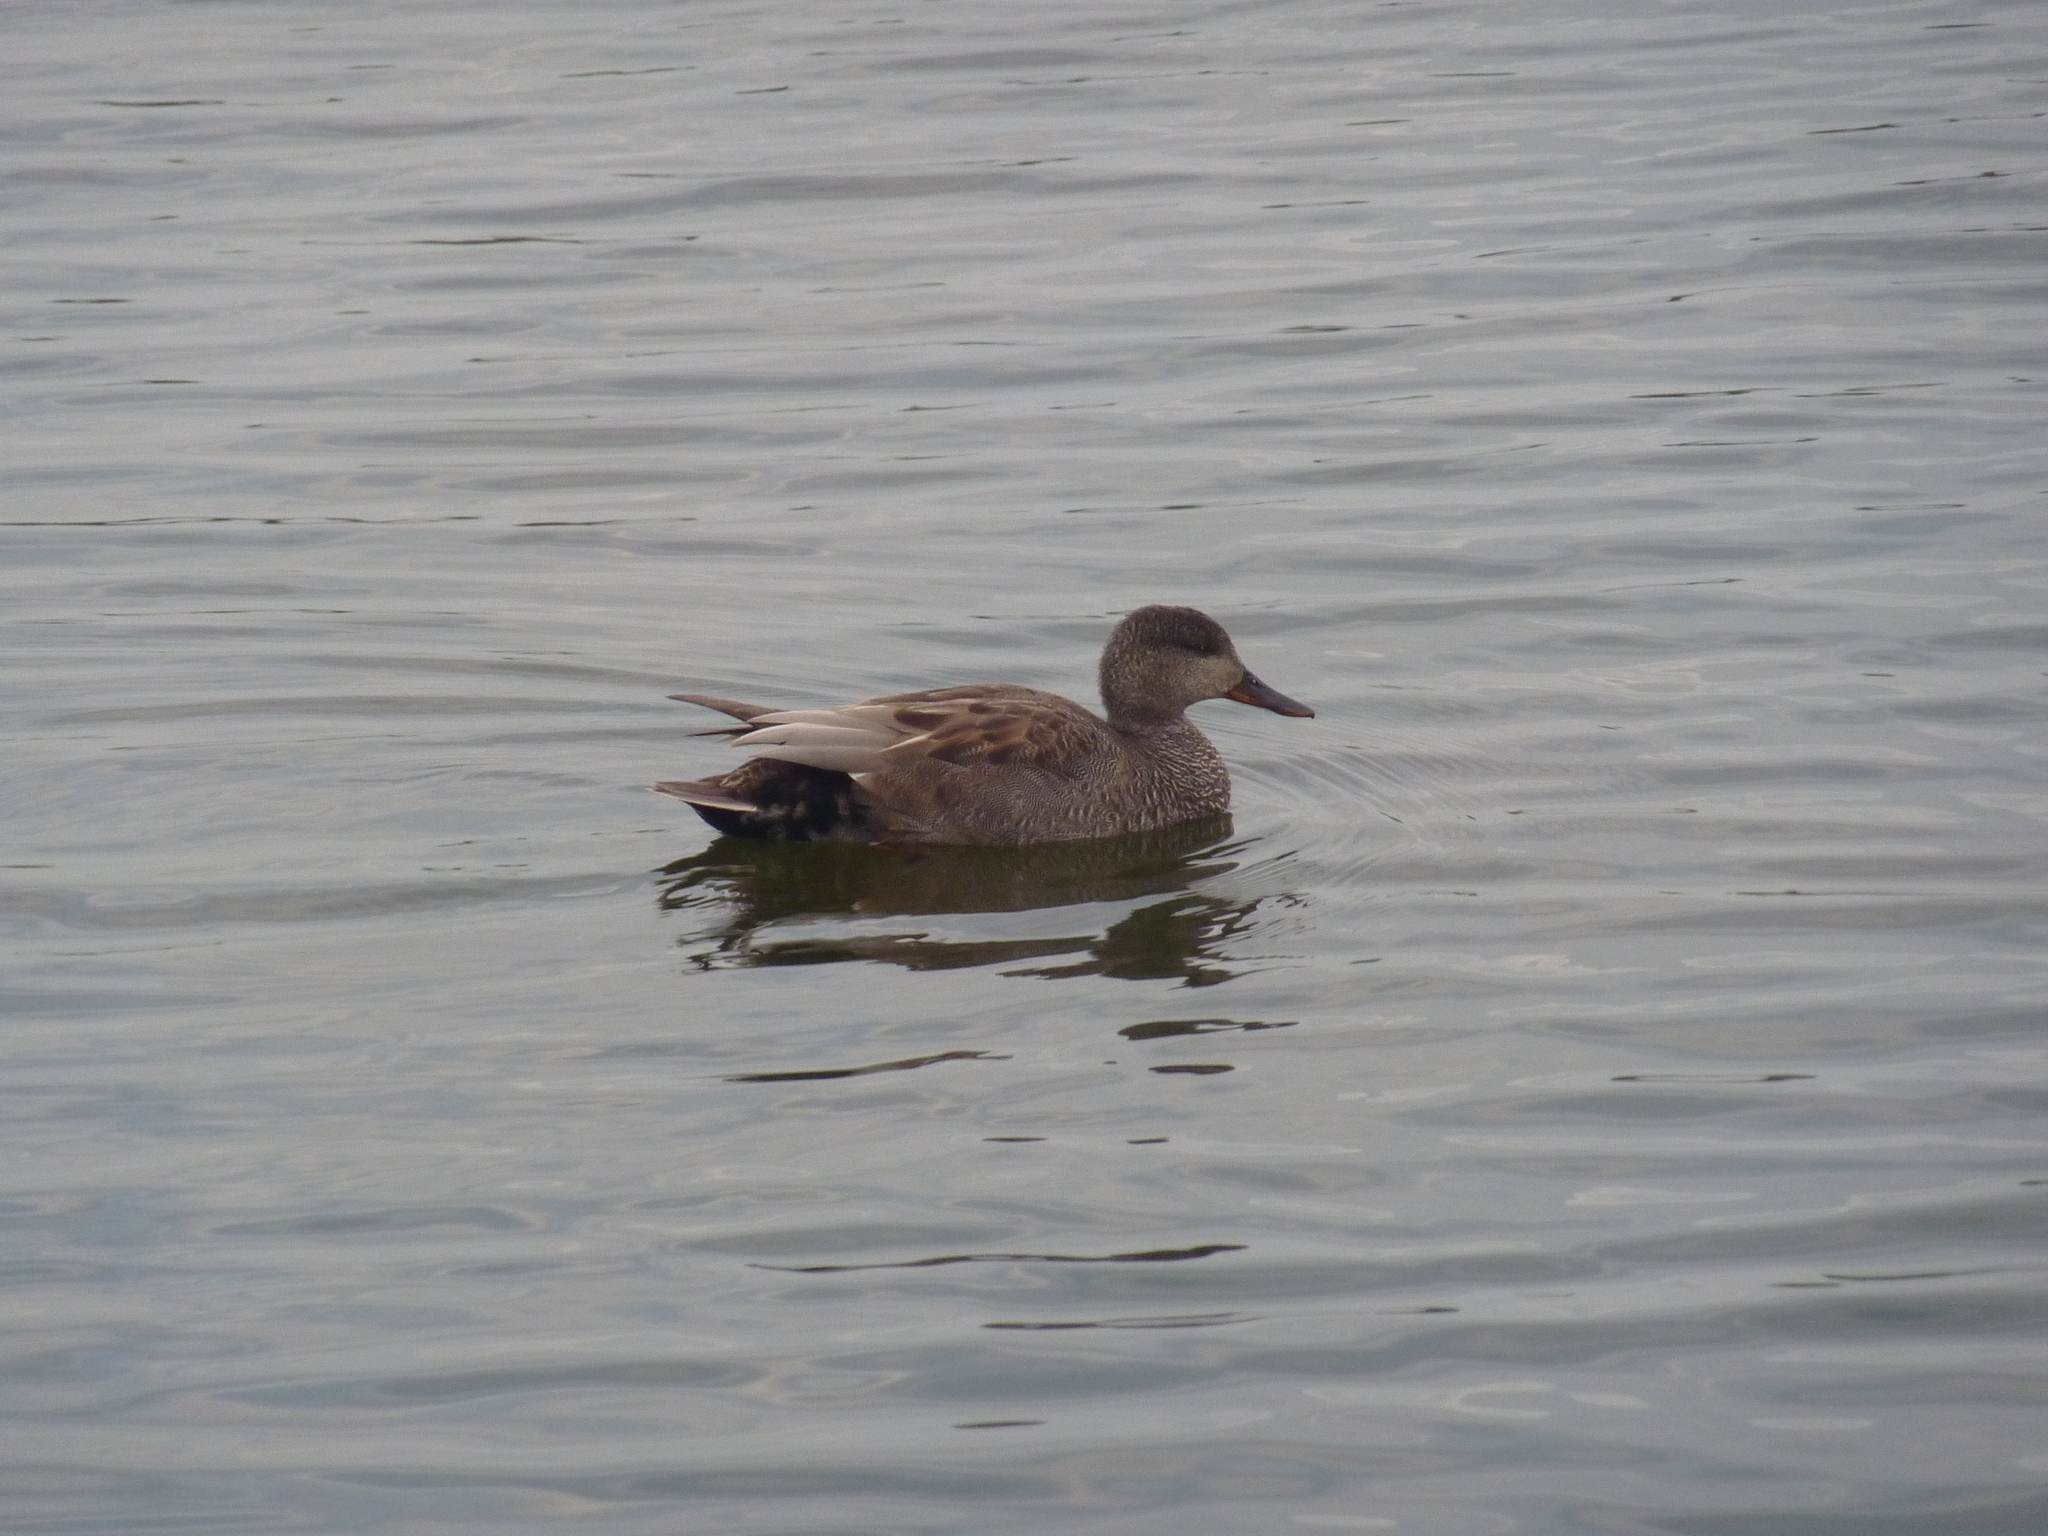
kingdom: Animalia
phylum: Chordata
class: Aves
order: Anseriformes
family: Anatidae
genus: Mareca
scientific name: Mareca strepera
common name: Gadwall
